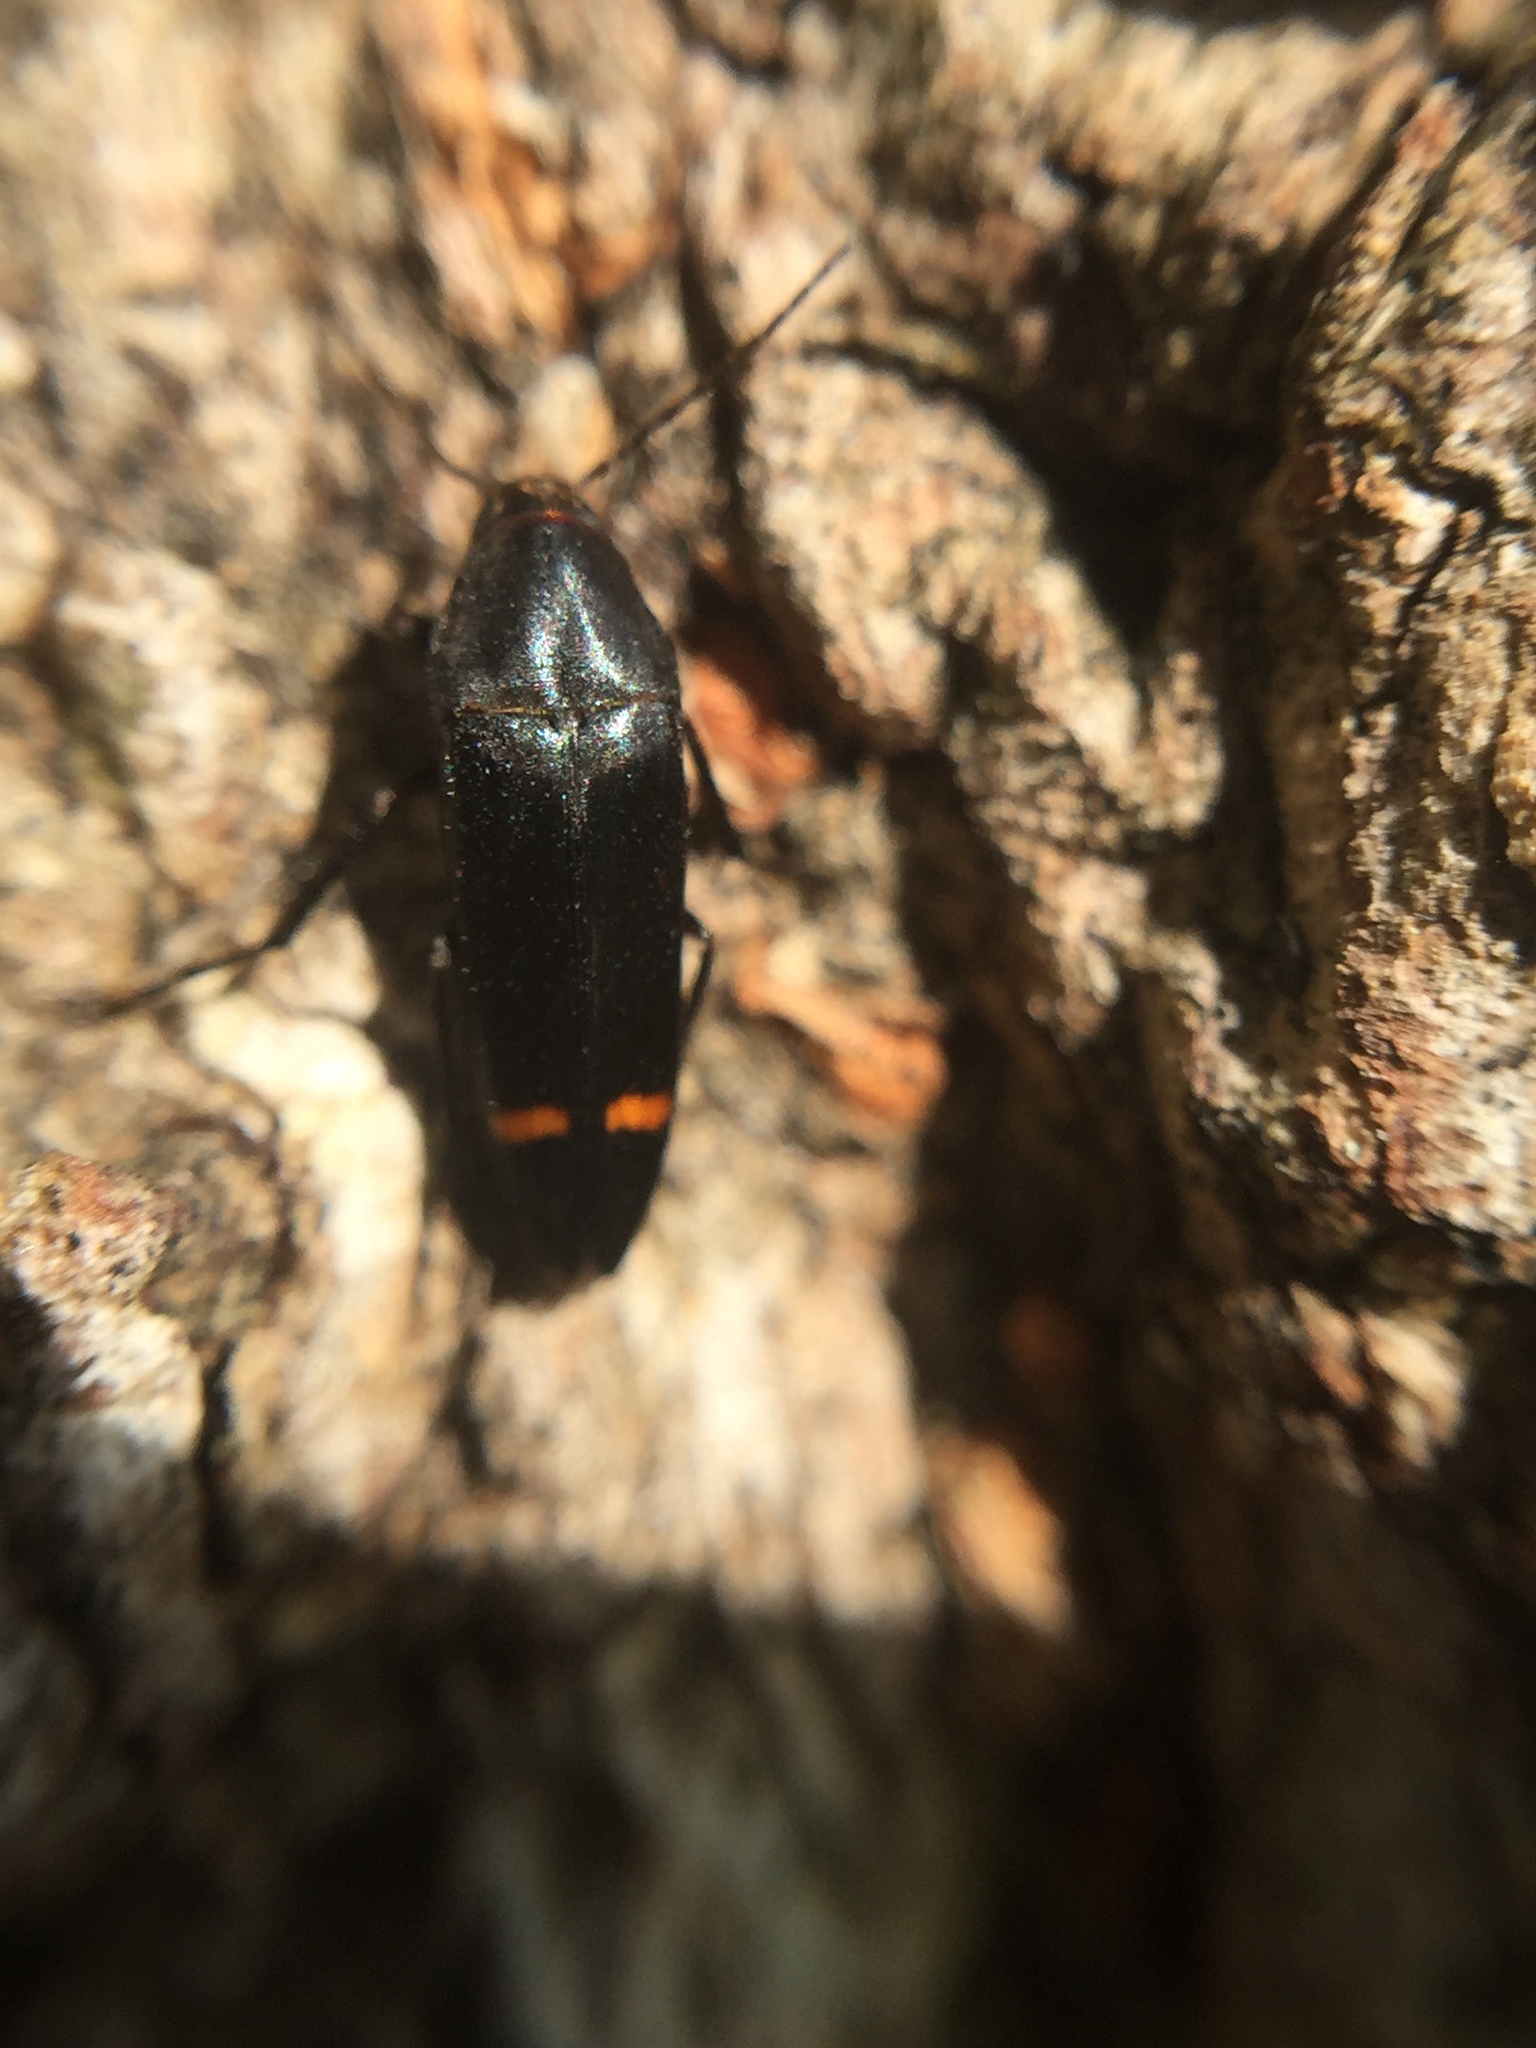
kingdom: Animalia
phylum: Arthropoda
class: Insecta
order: Coleoptera
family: Melandryidae
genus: Ctenoplectron
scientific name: Ctenoplectron
